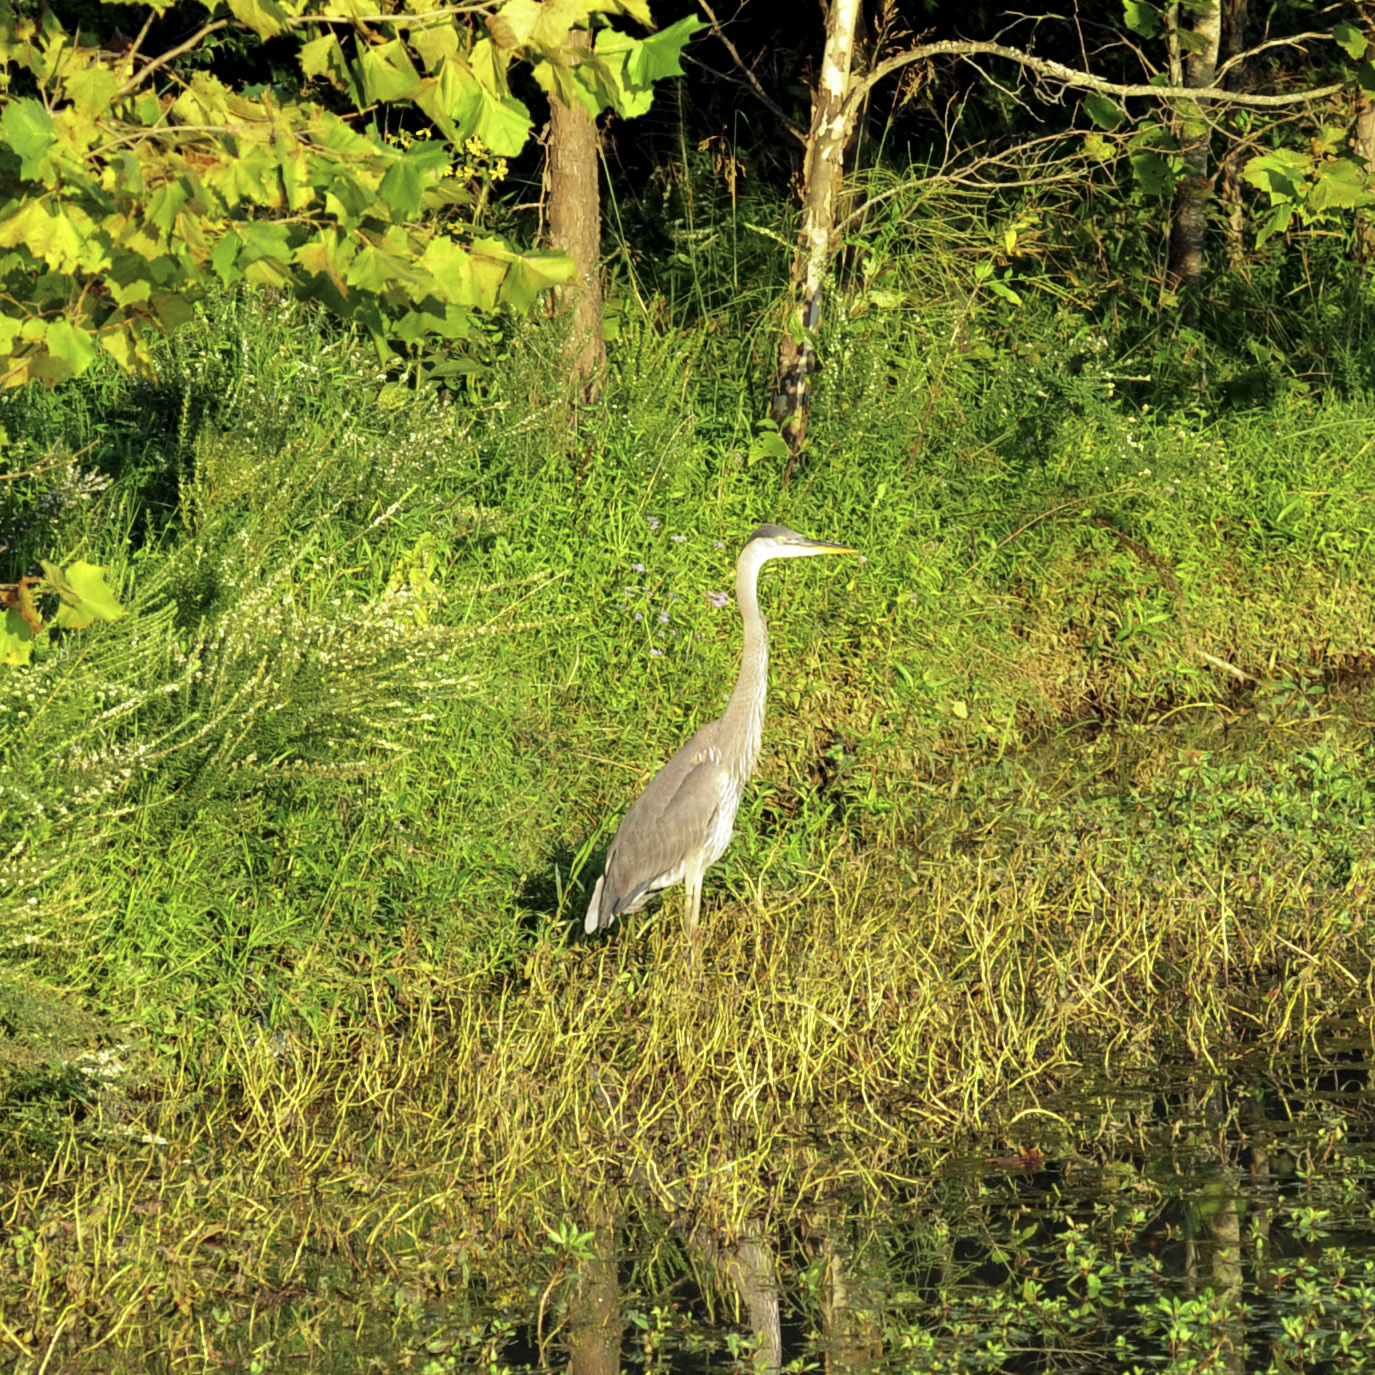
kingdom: Animalia
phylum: Chordata
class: Aves
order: Pelecaniformes
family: Ardeidae
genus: Ardea
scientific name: Ardea herodias
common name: Great blue heron
